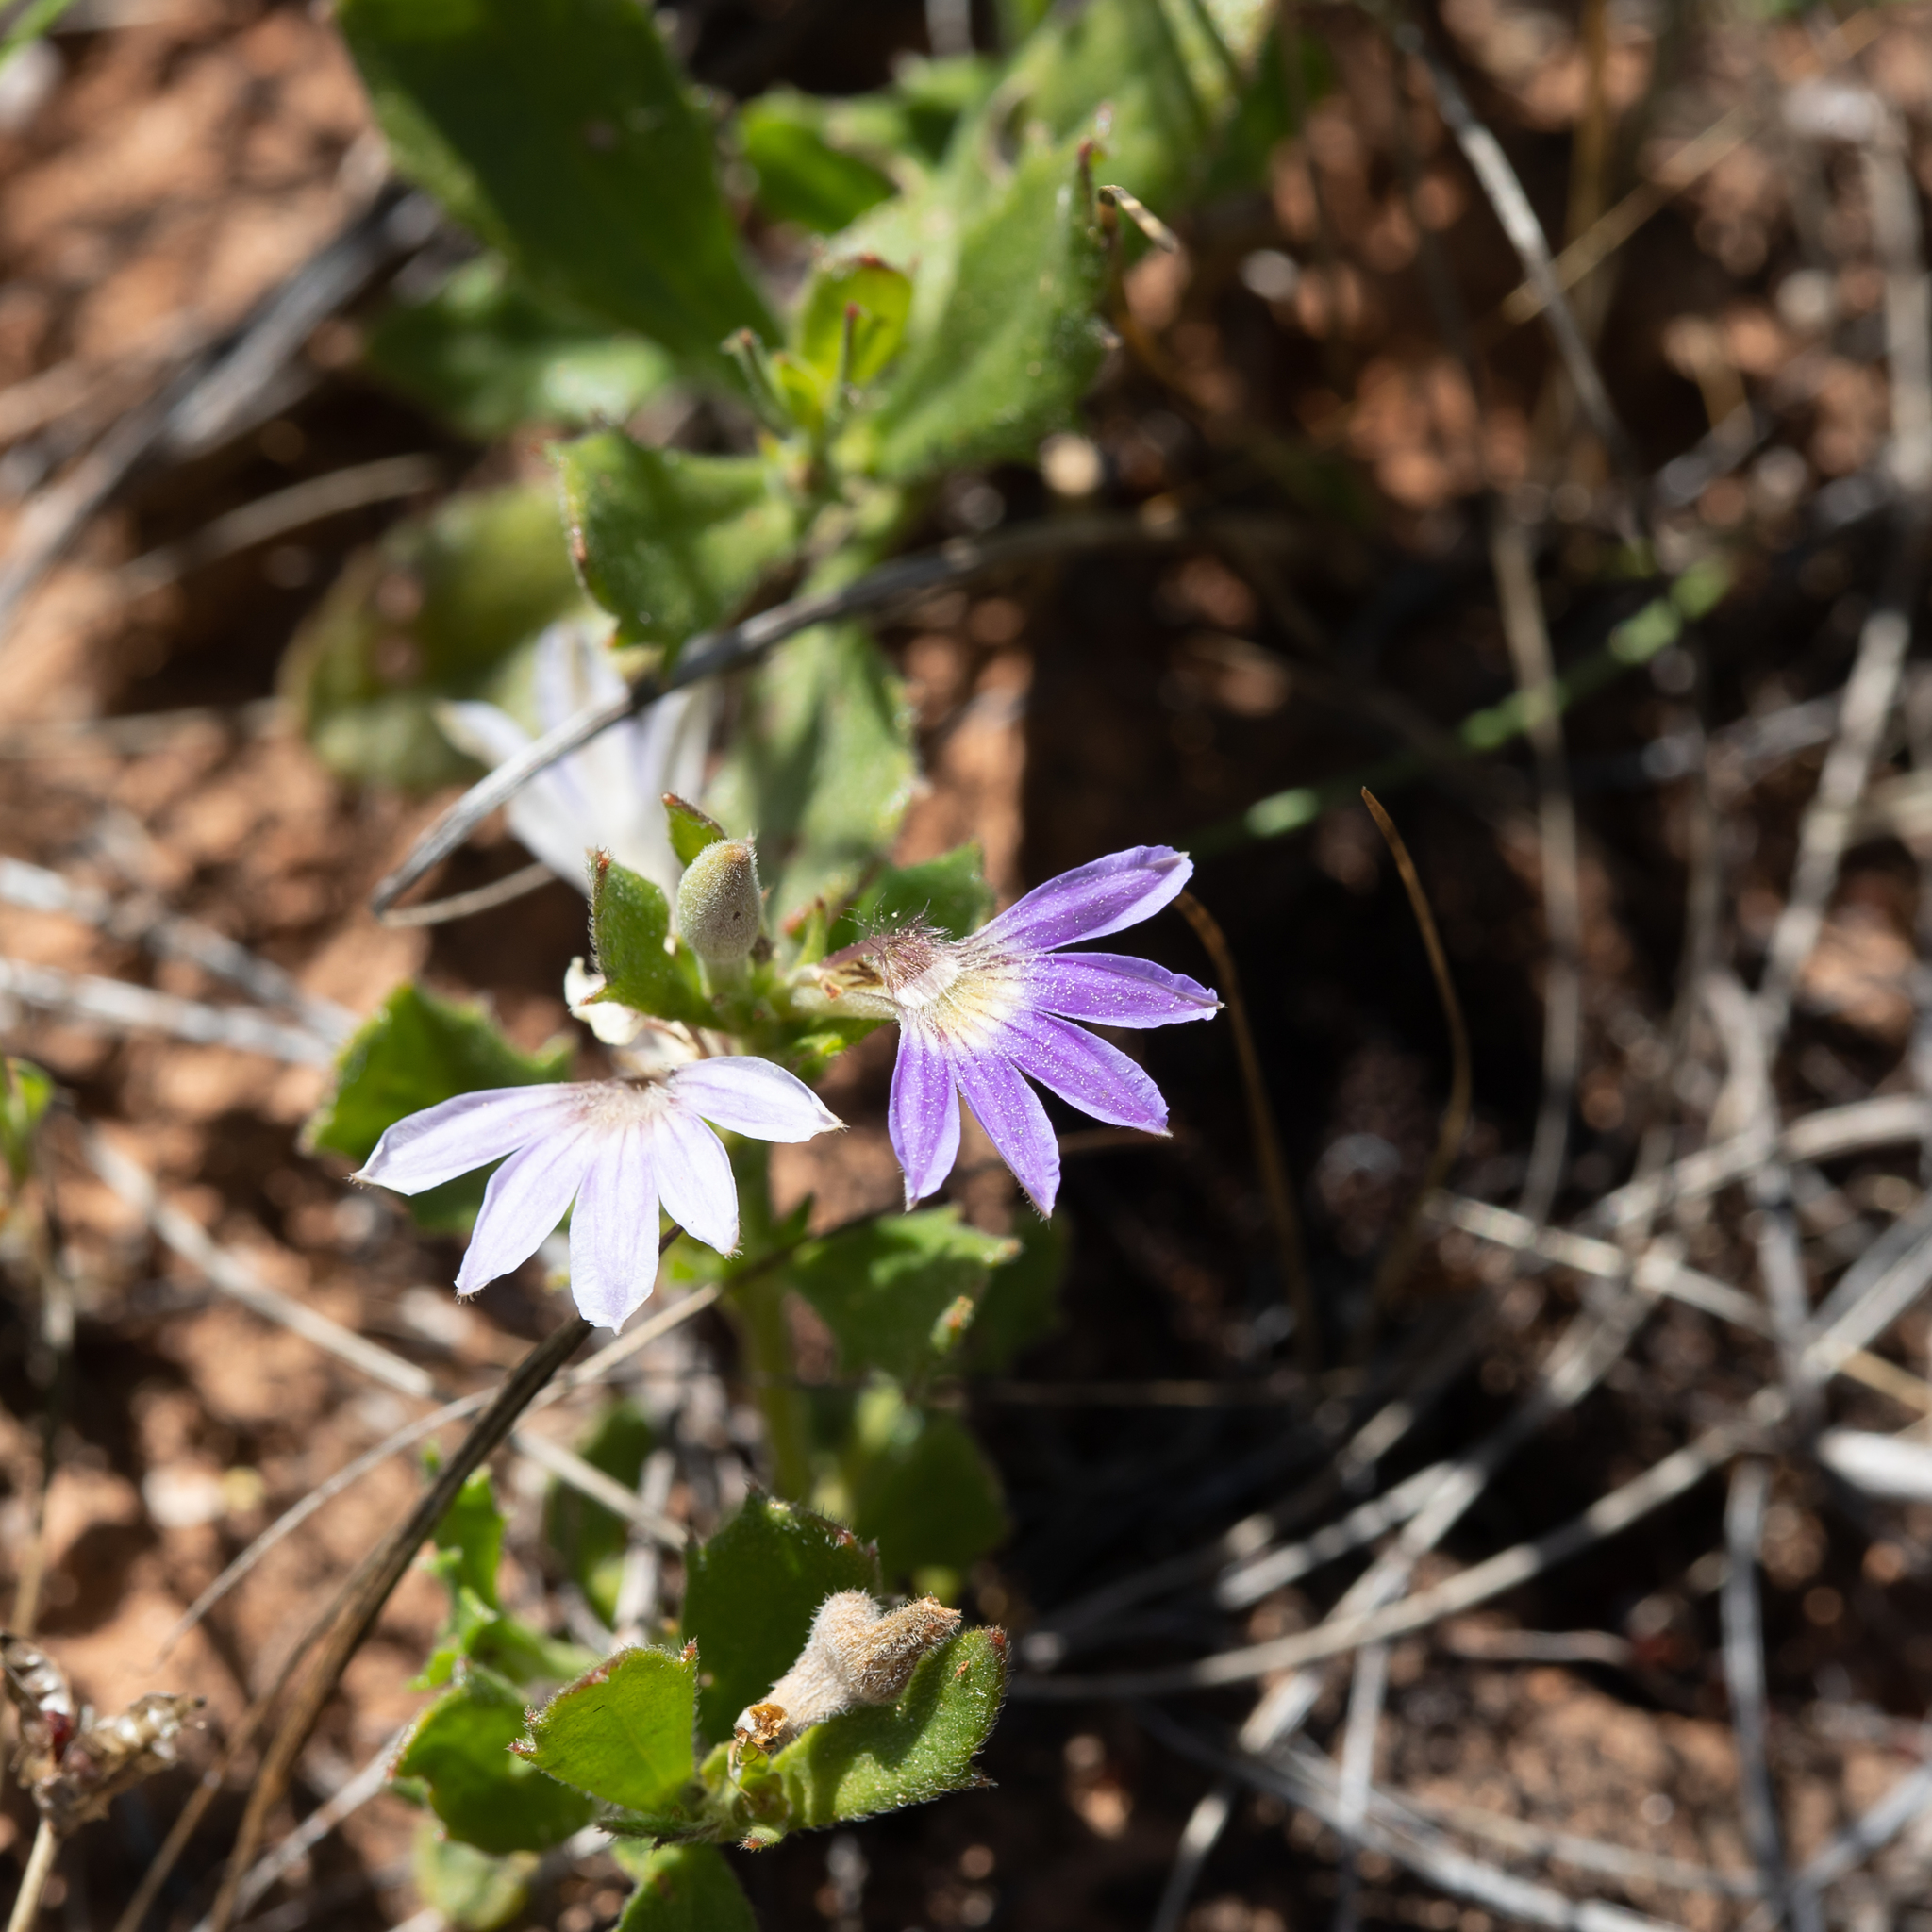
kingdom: Plantae
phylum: Tracheophyta
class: Magnoliopsida
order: Asterales
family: Goodeniaceae
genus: Scaevola
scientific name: Scaevola humilis
